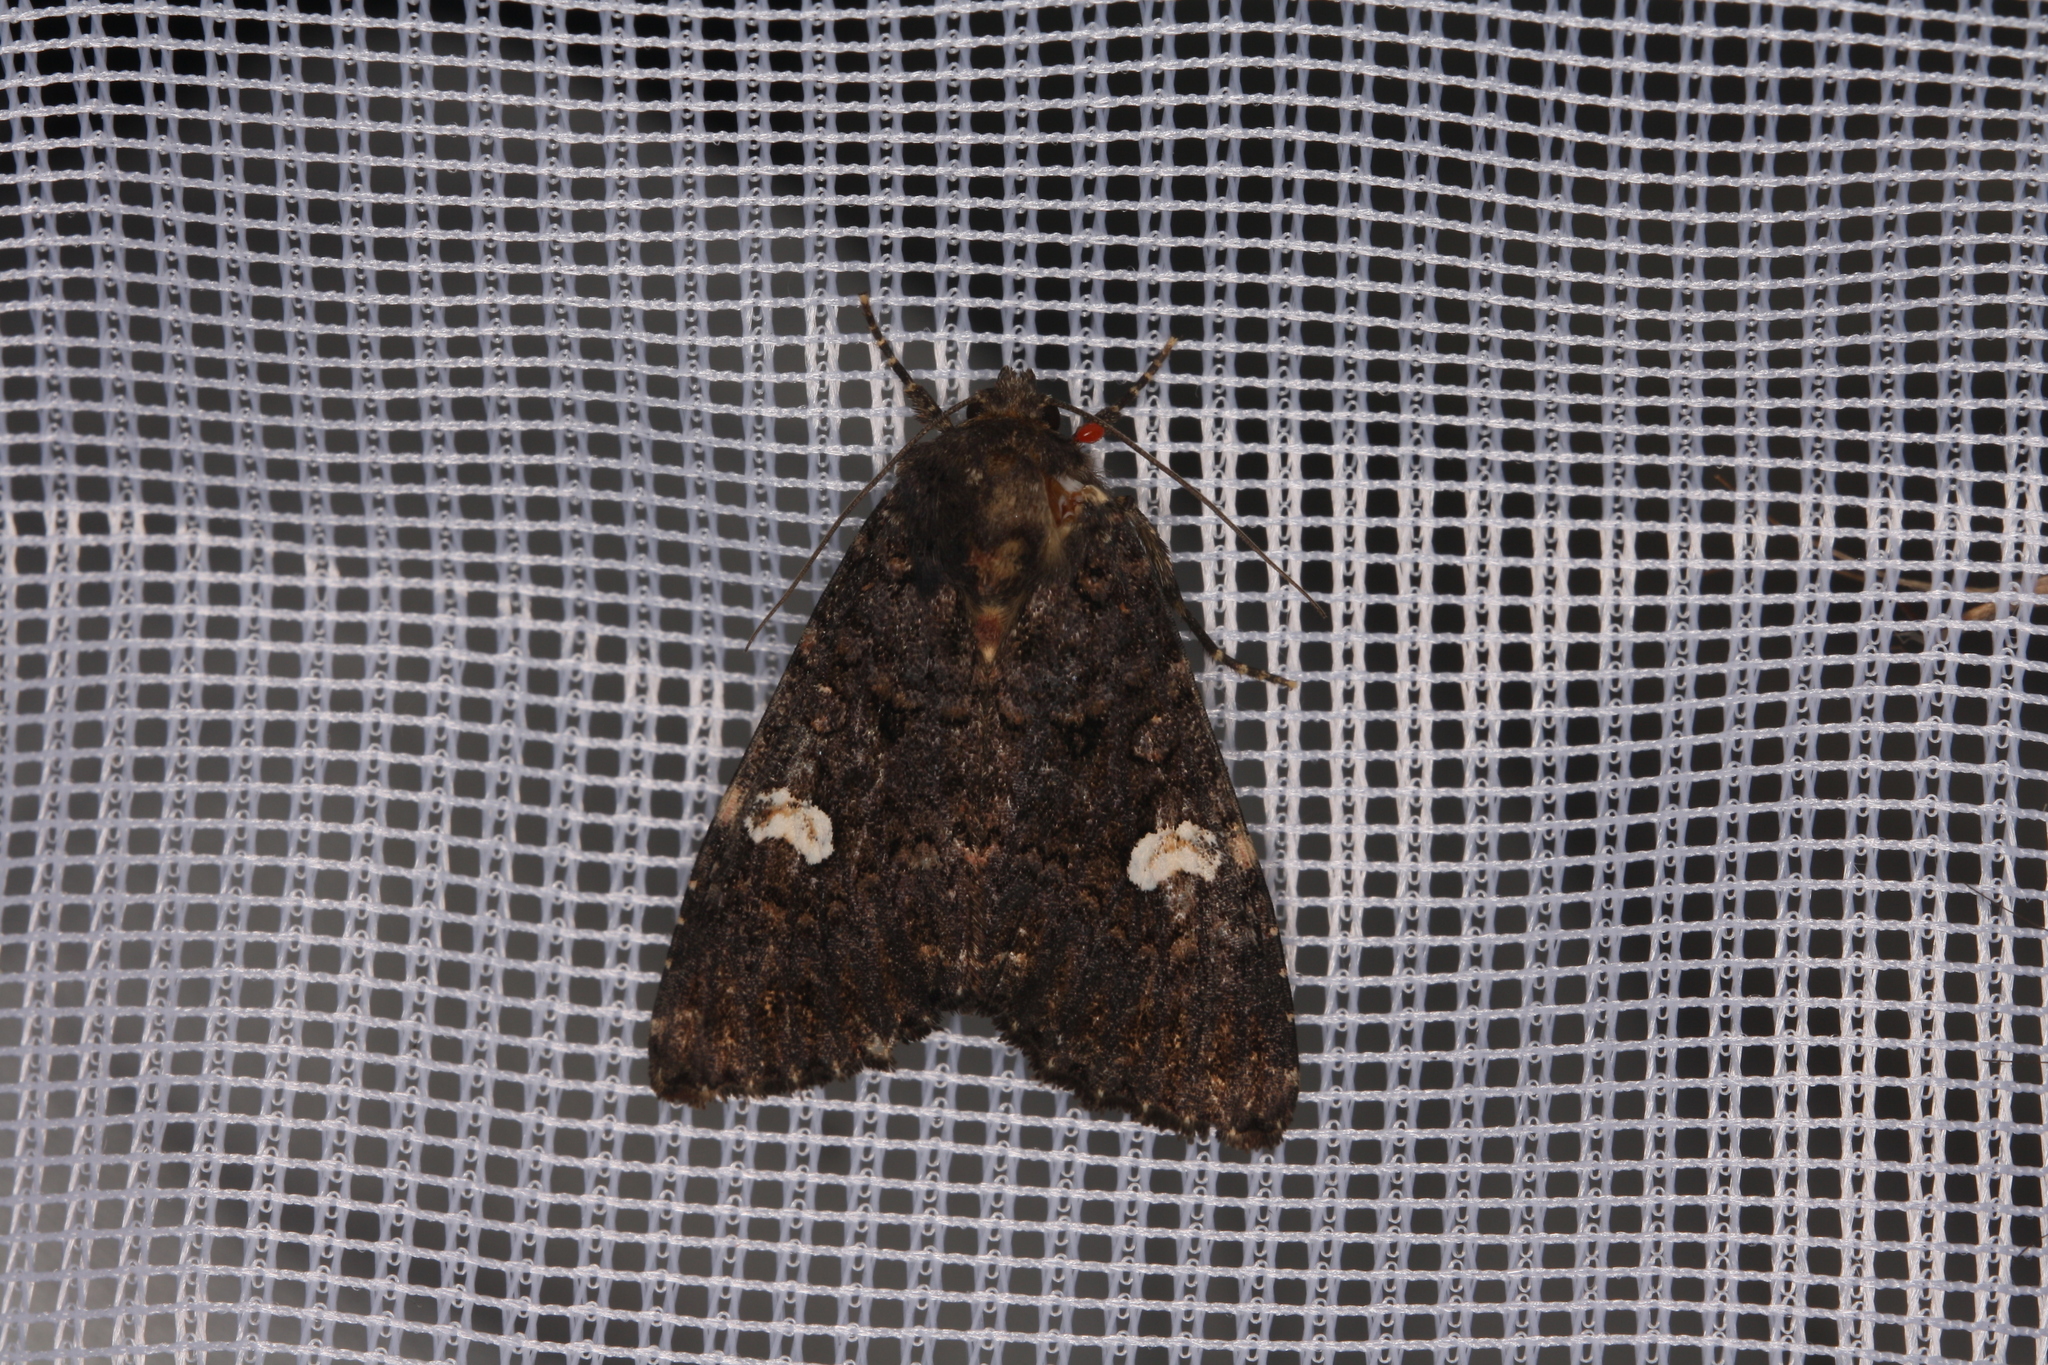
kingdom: Animalia
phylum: Arthropoda
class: Insecta
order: Lepidoptera
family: Noctuidae
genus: Melanchra
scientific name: Melanchra persicariae
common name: Dot moth
